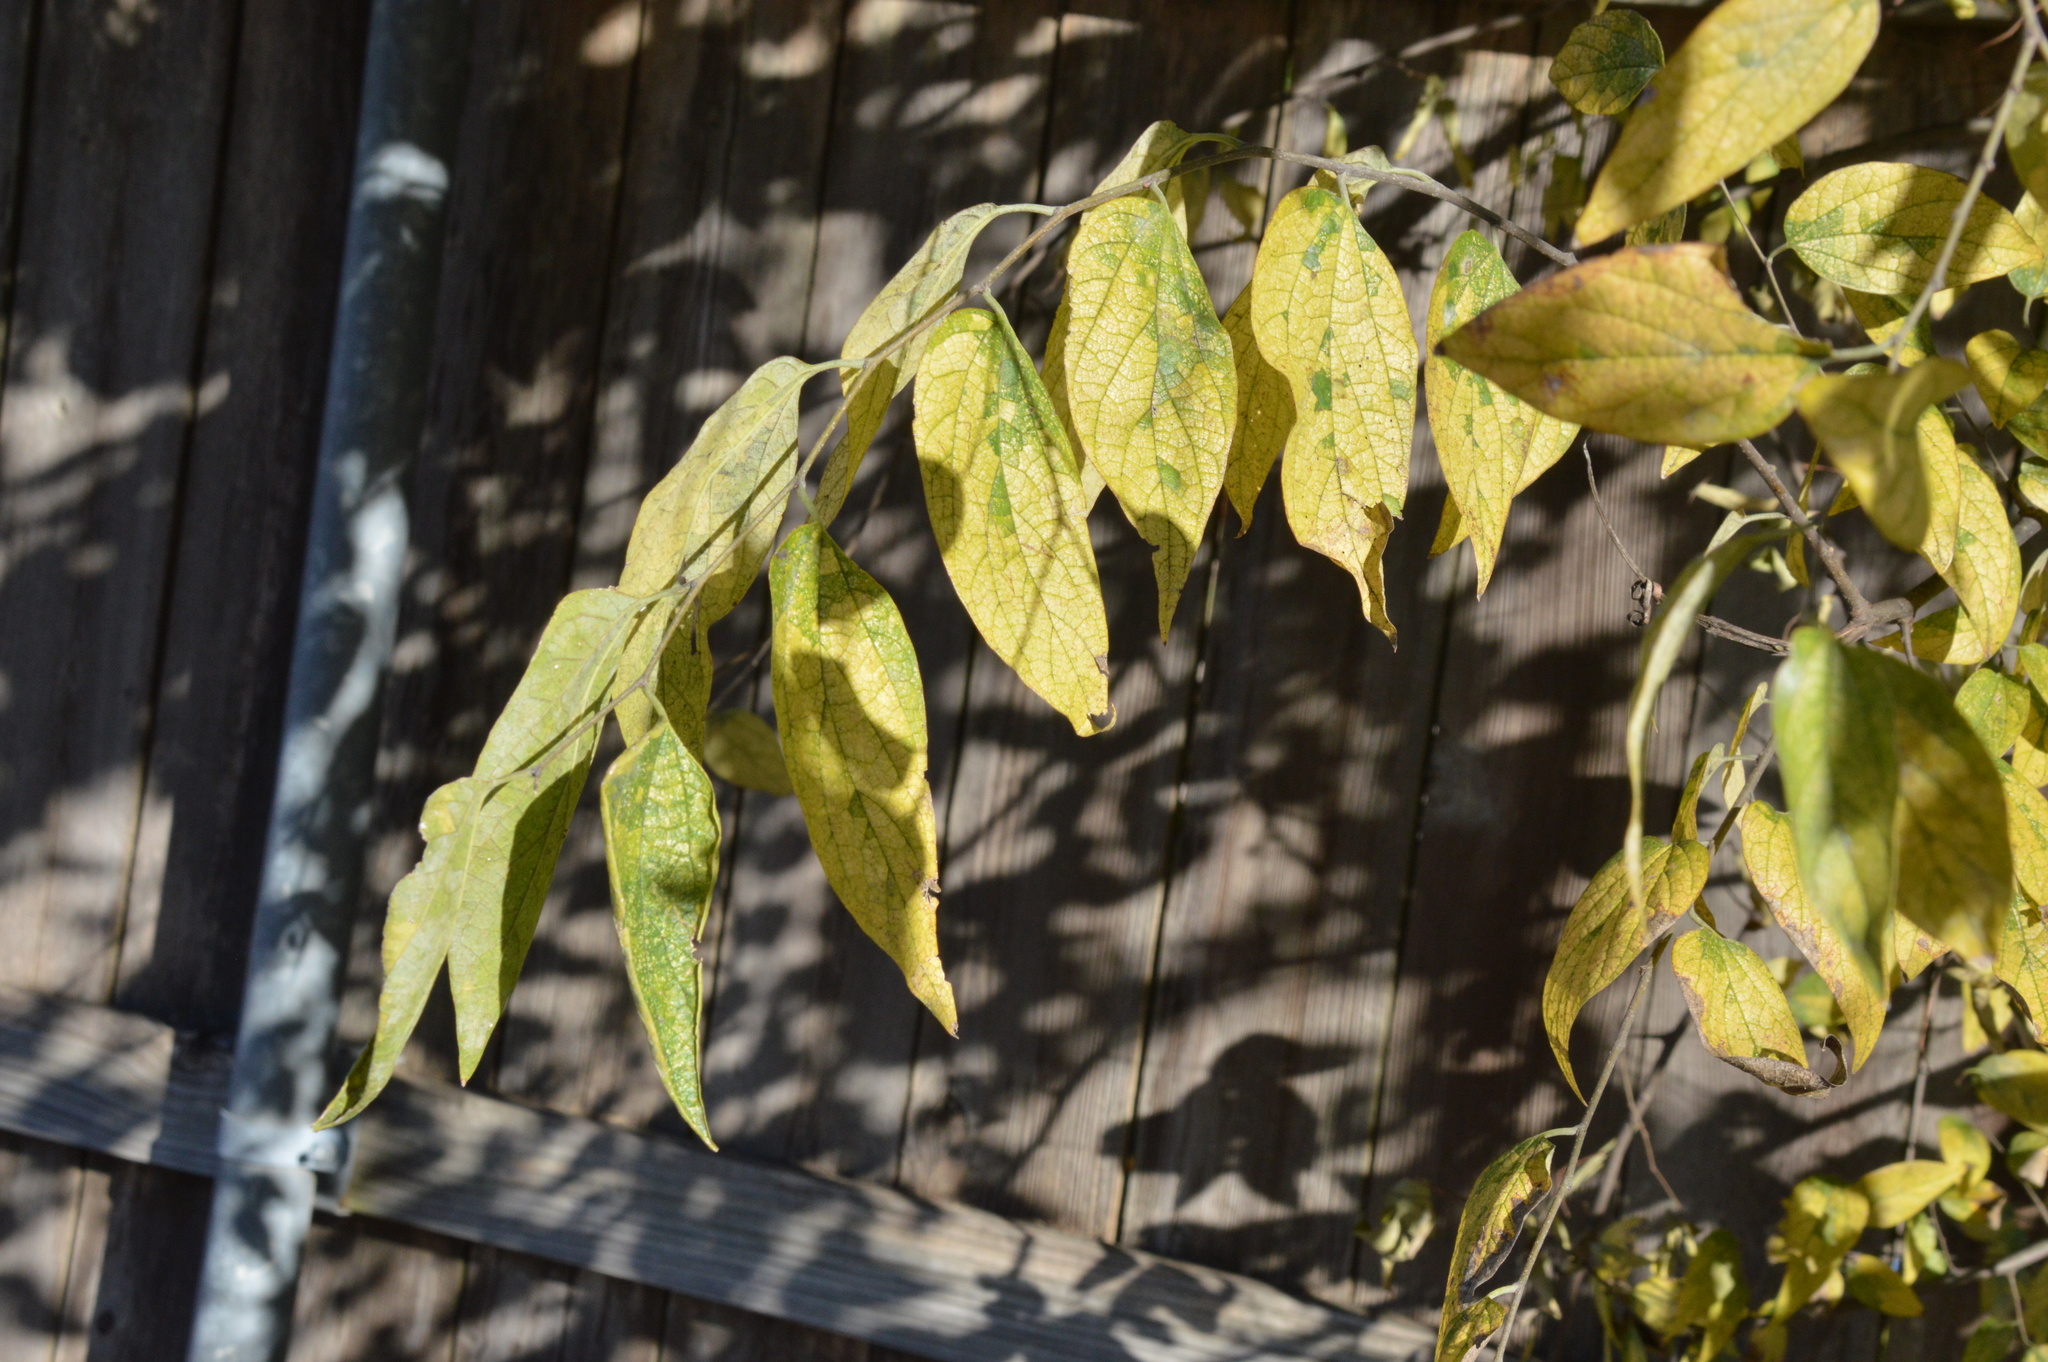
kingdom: Plantae
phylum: Tracheophyta
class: Magnoliopsida
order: Rosales
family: Cannabaceae
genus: Celtis
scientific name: Celtis laevigata
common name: Sugarberry
